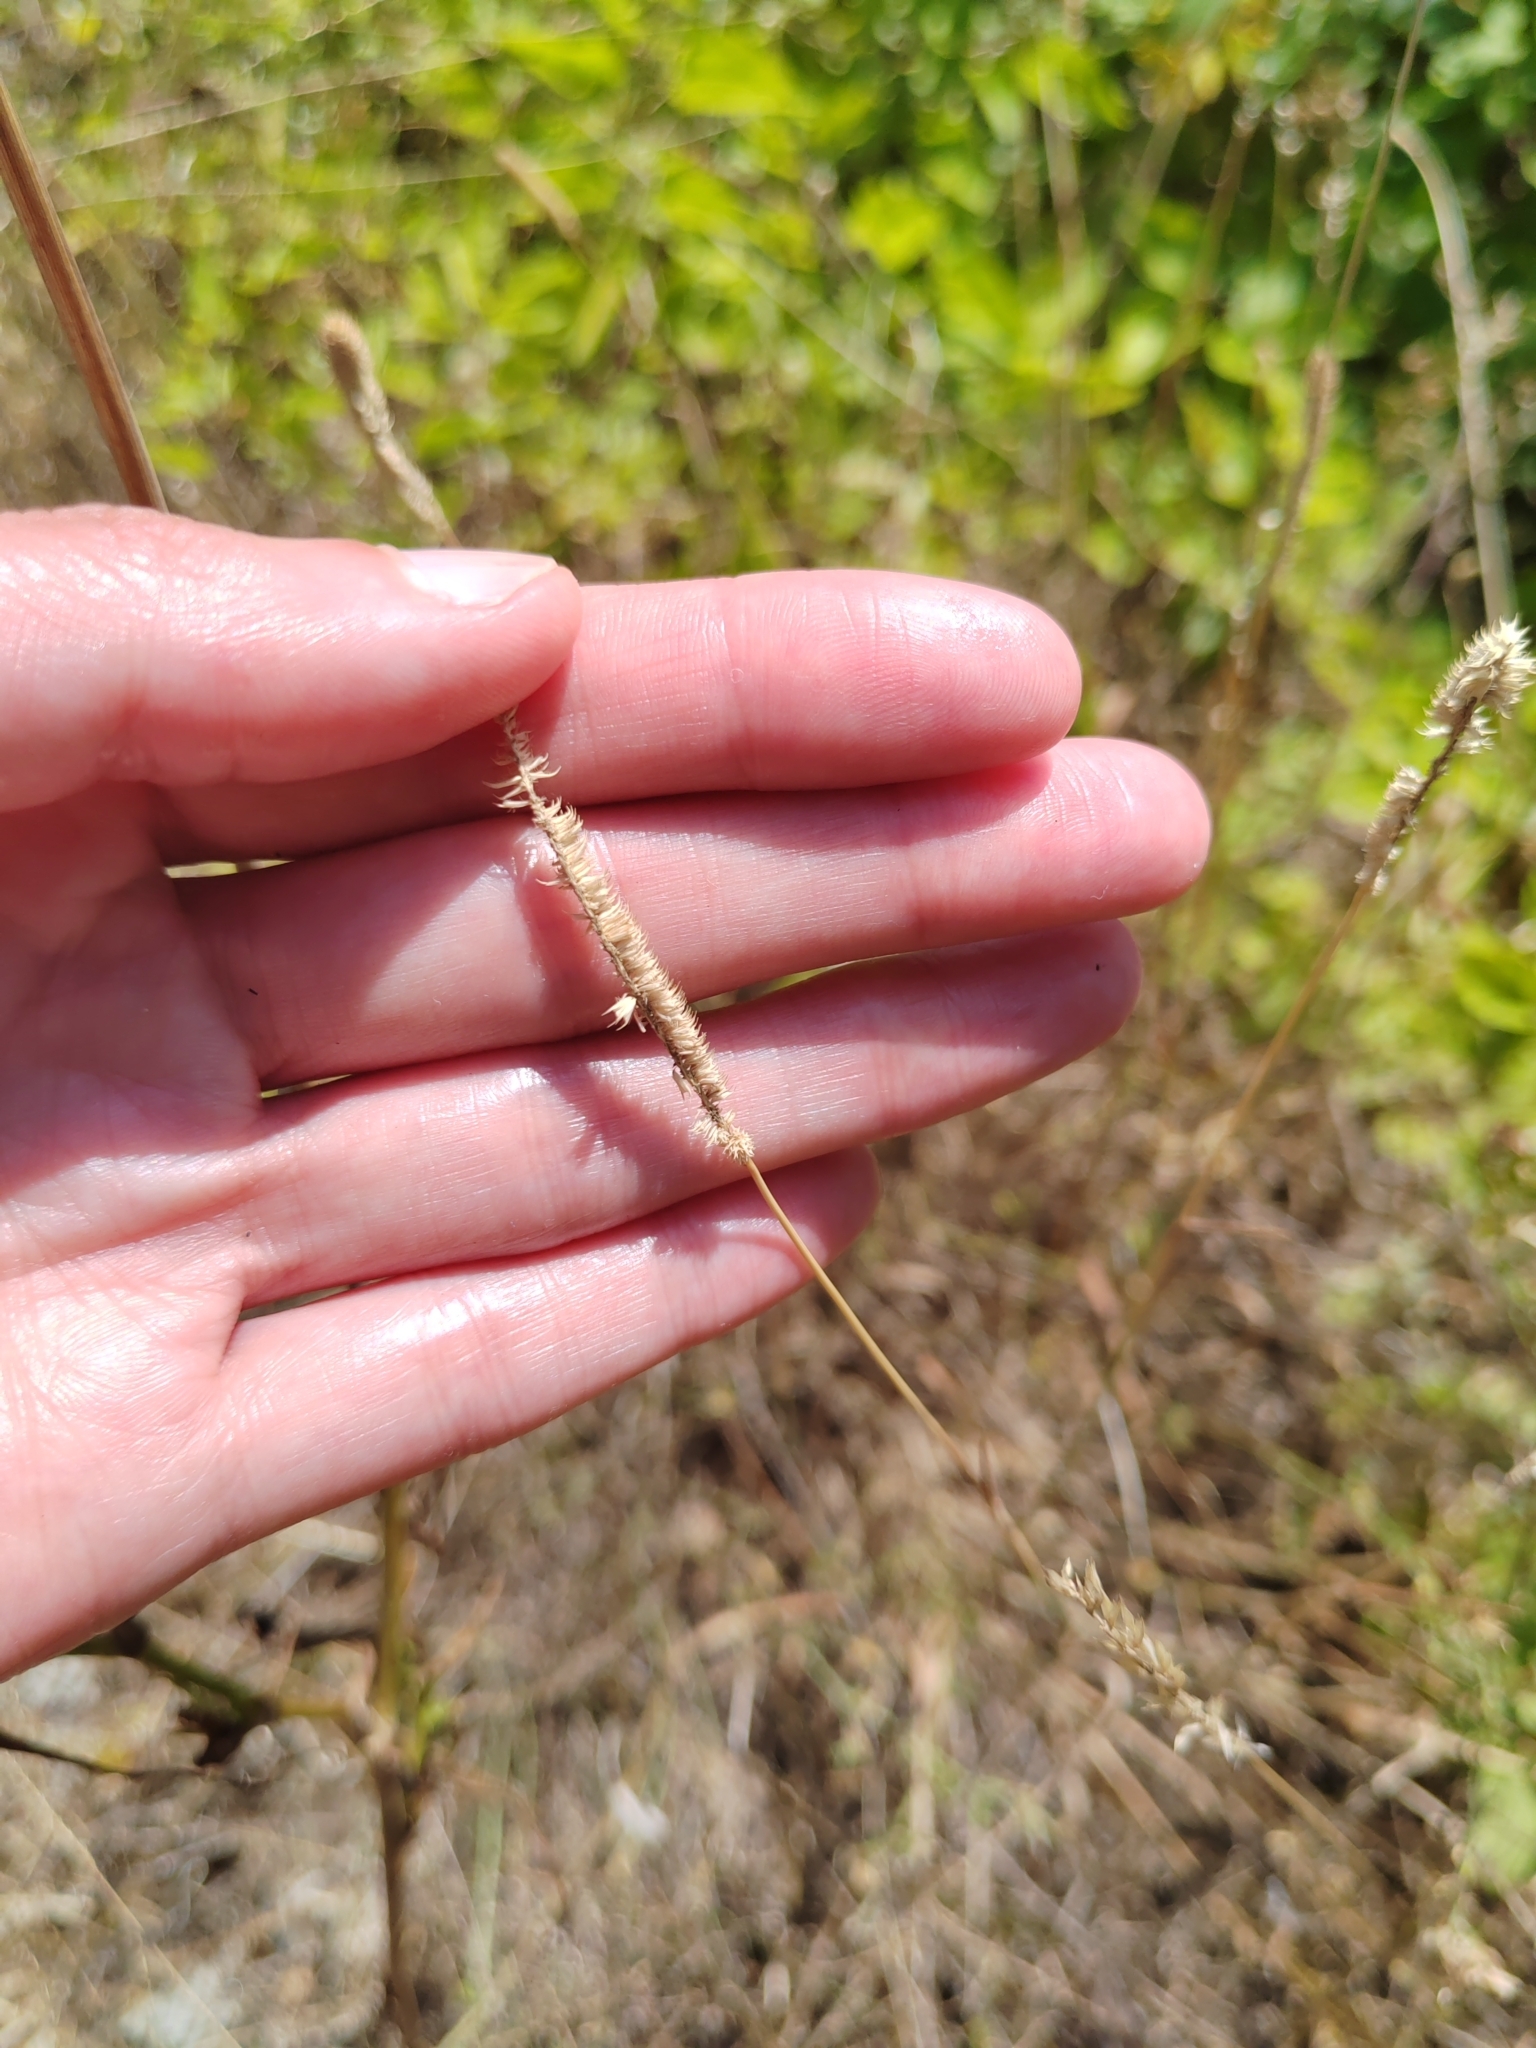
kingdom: Plantae
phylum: Tracheophyta
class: Liliopsida
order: Poales
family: Poaceae
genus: Phleum
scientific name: Phleum pratense
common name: Timothy grass
